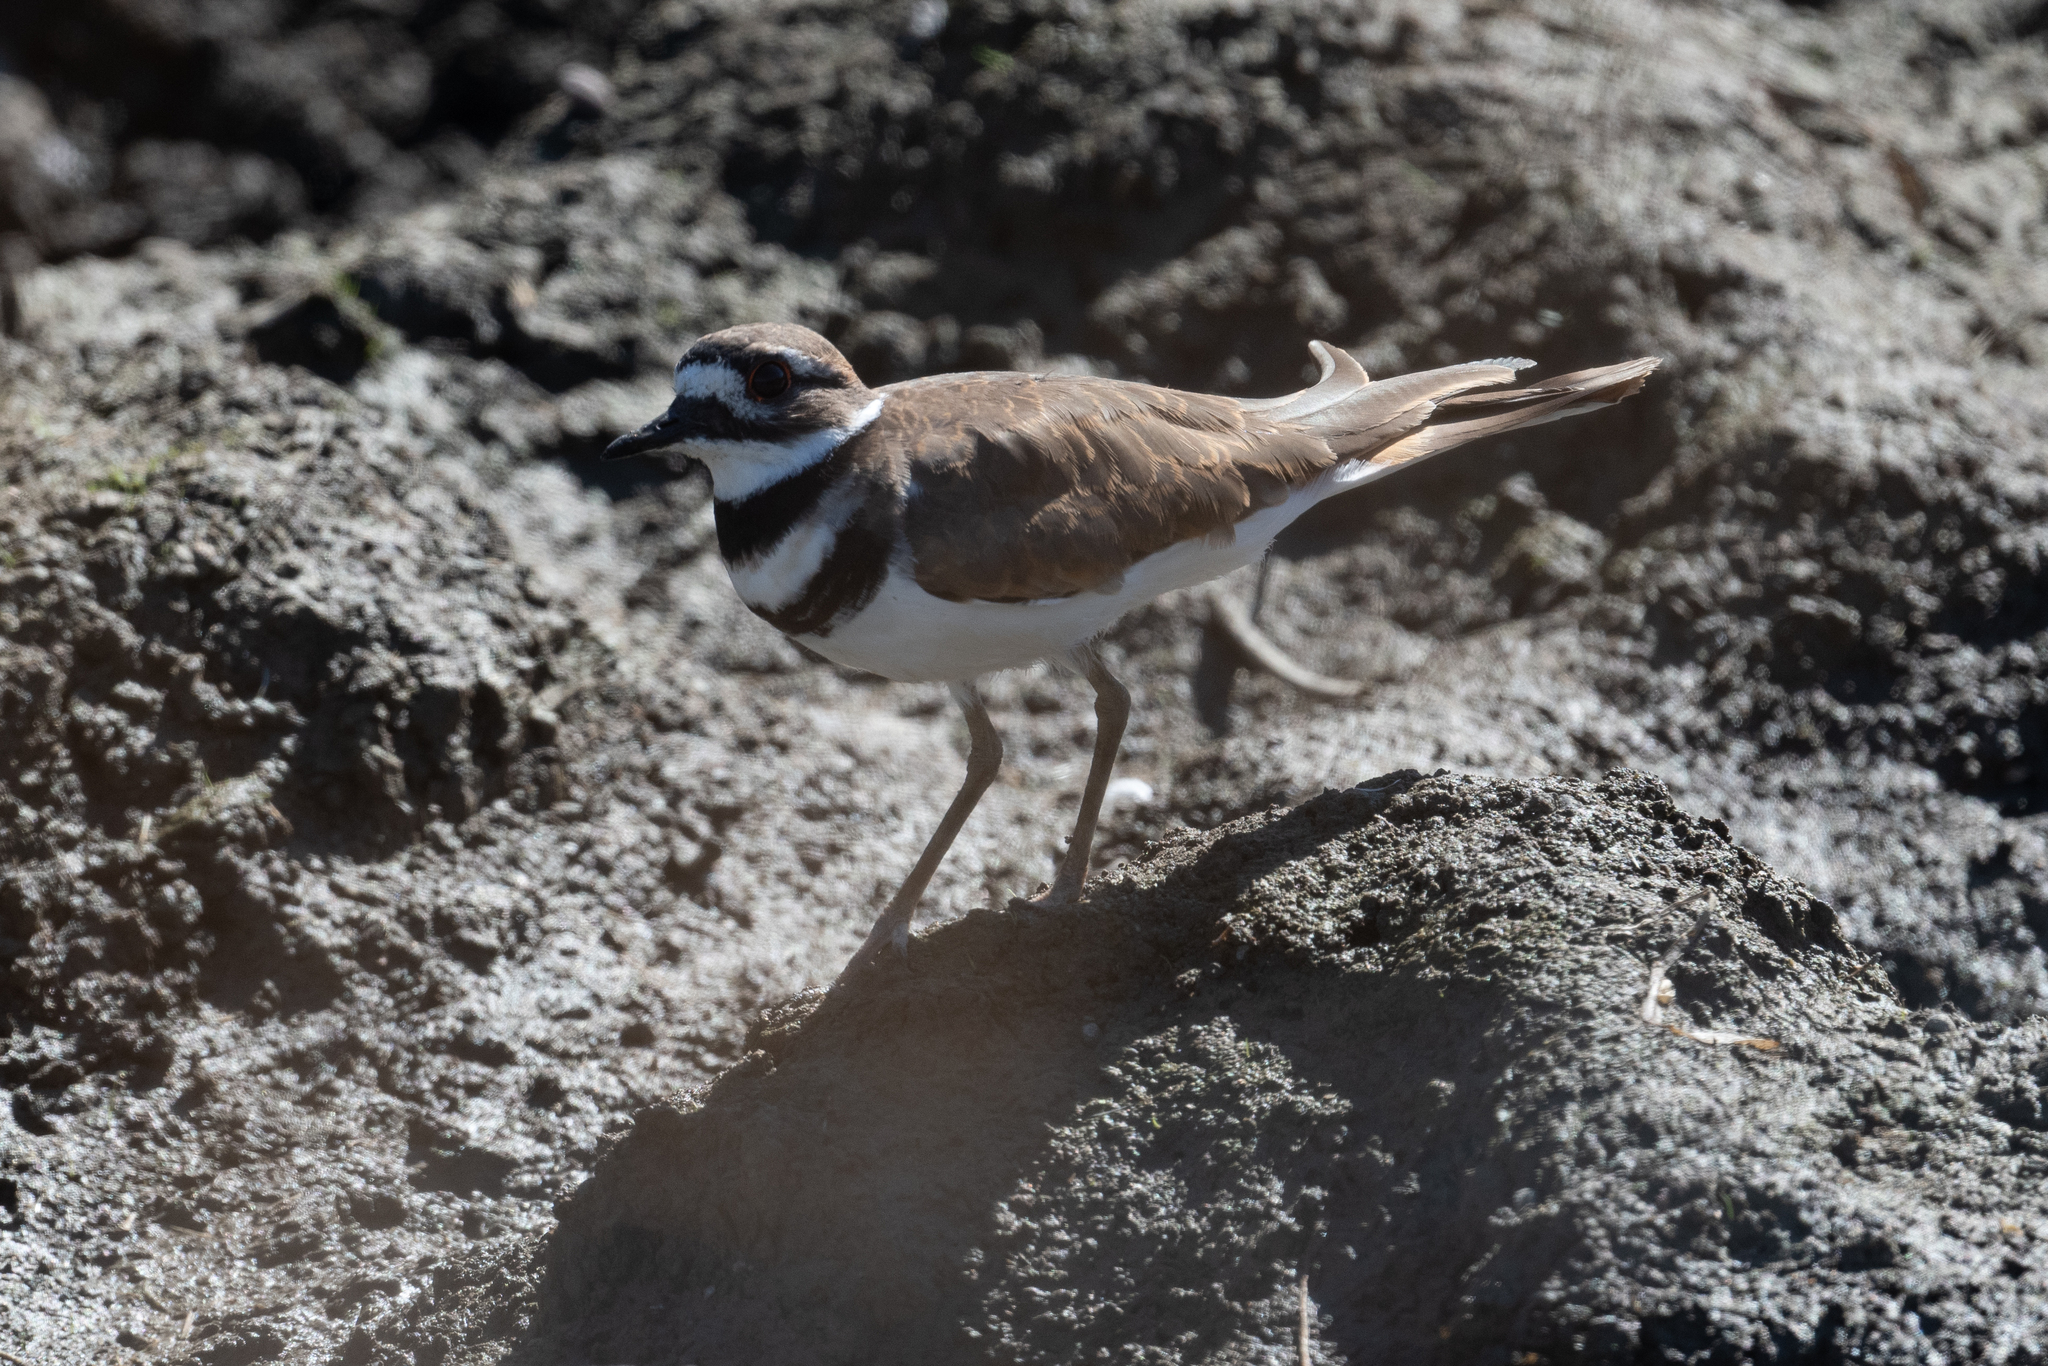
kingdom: Animalia
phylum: Chordata
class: Aves
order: Charadriiformes
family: Charadriidae
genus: Charadrius
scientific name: Charadrius vociferus
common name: Killdeer
